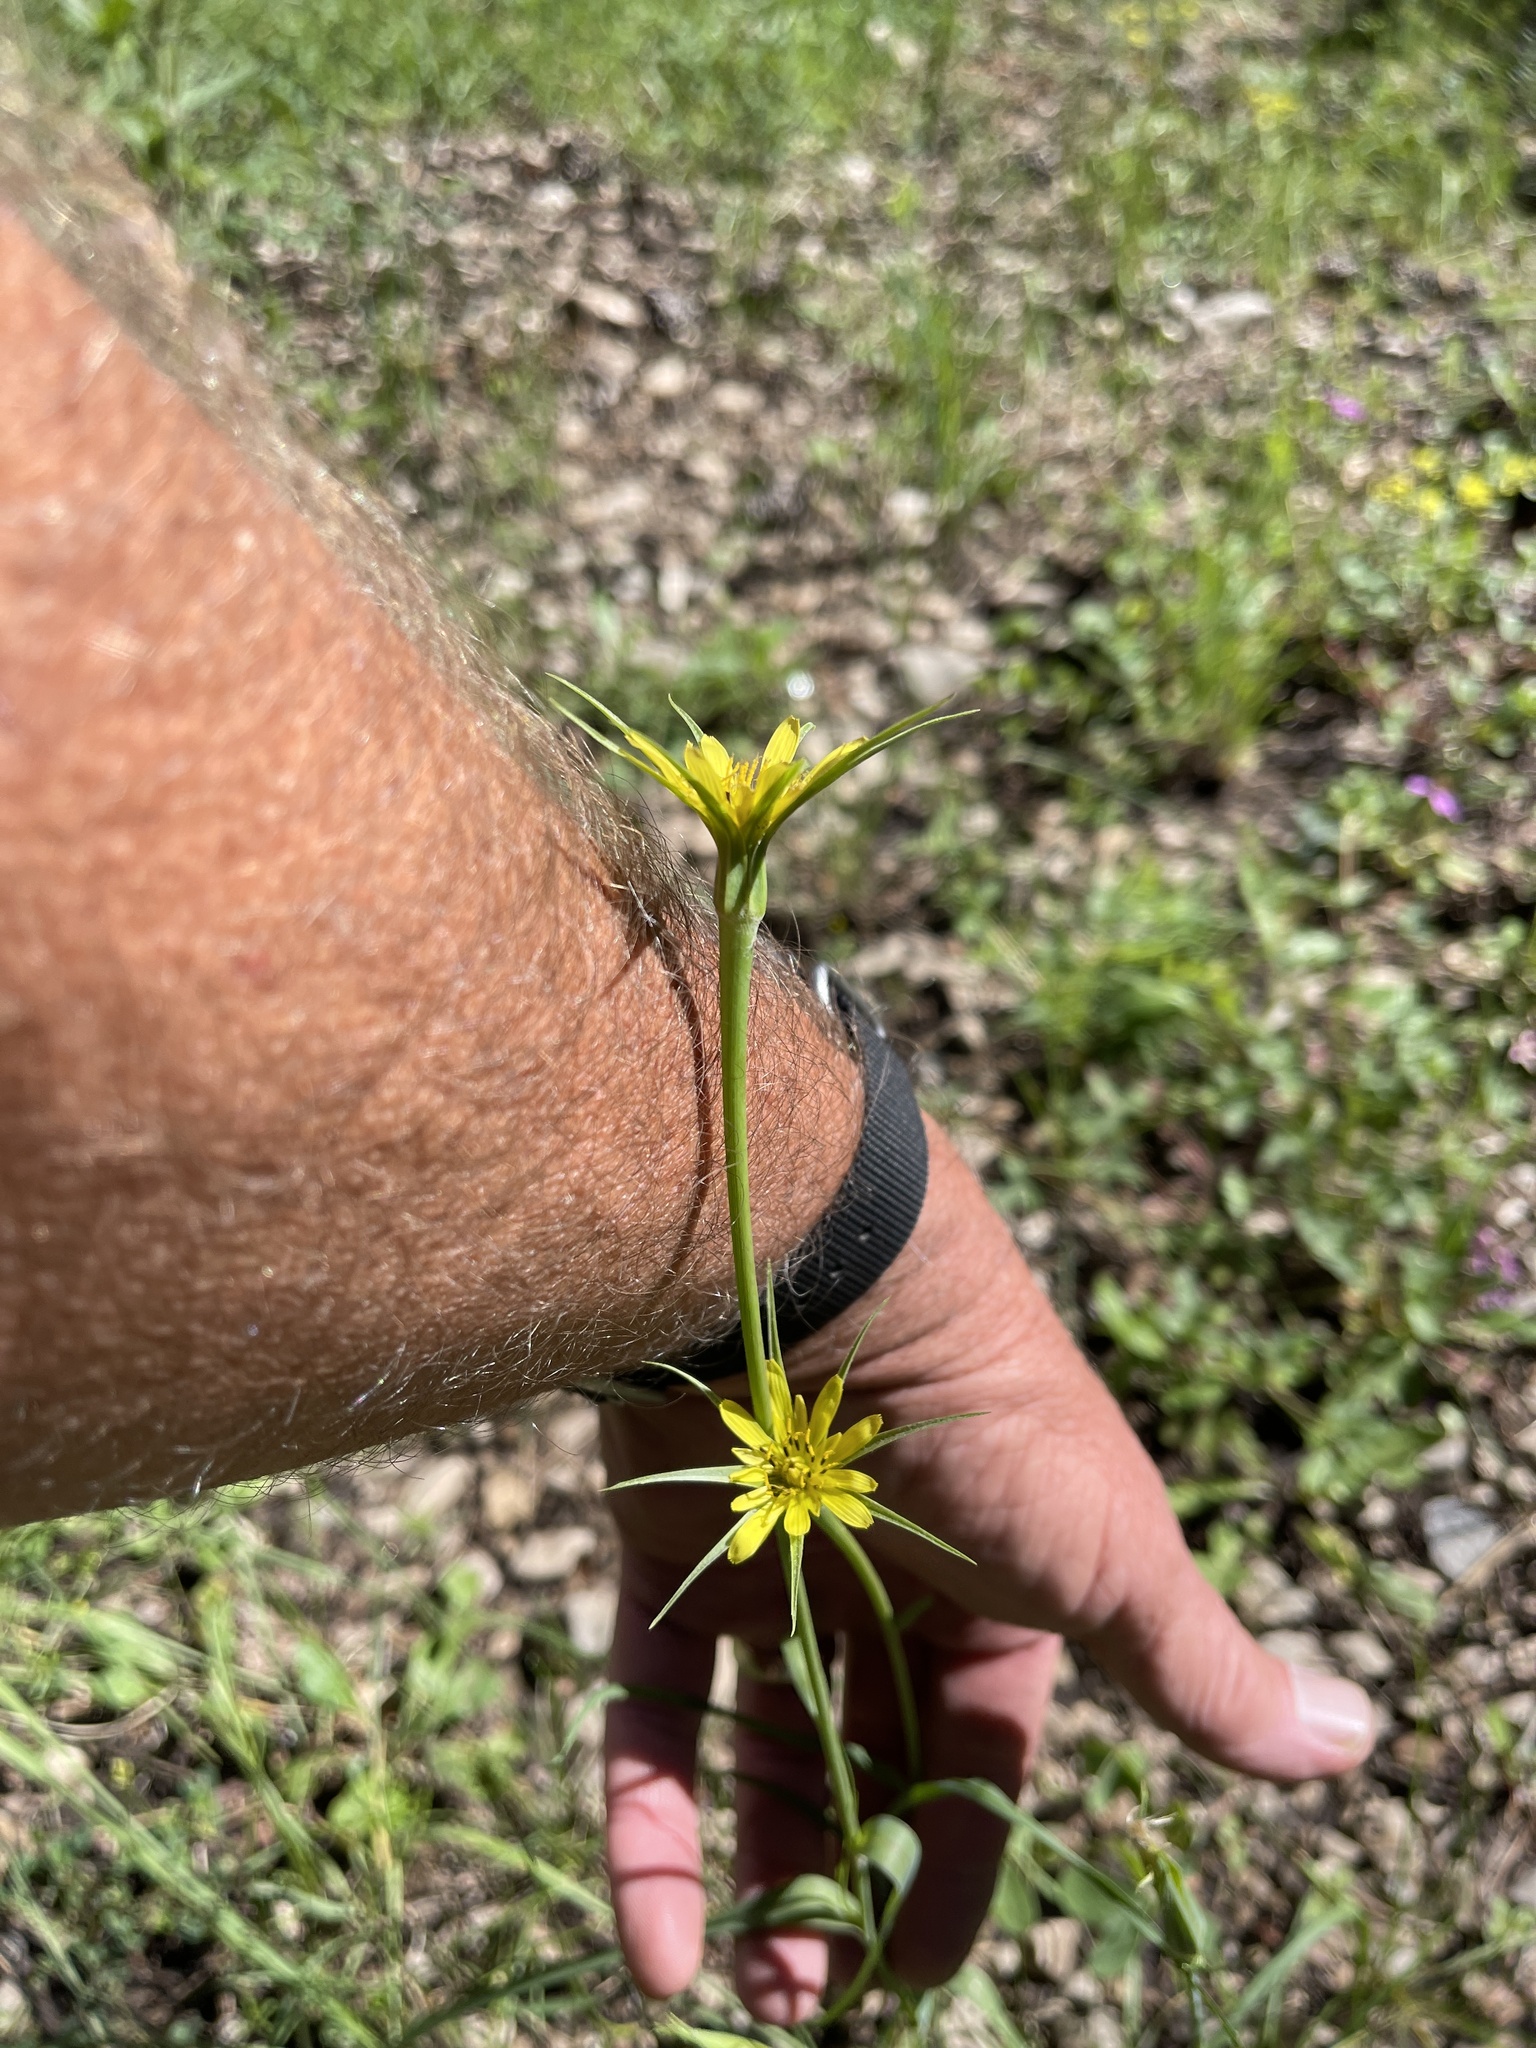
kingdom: Plantae
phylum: Tracheophyta
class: Magnoliopsida
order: Asterales
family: Asteraceae
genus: Tragopogon
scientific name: Tragopogon dubius
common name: Yellow salsify
